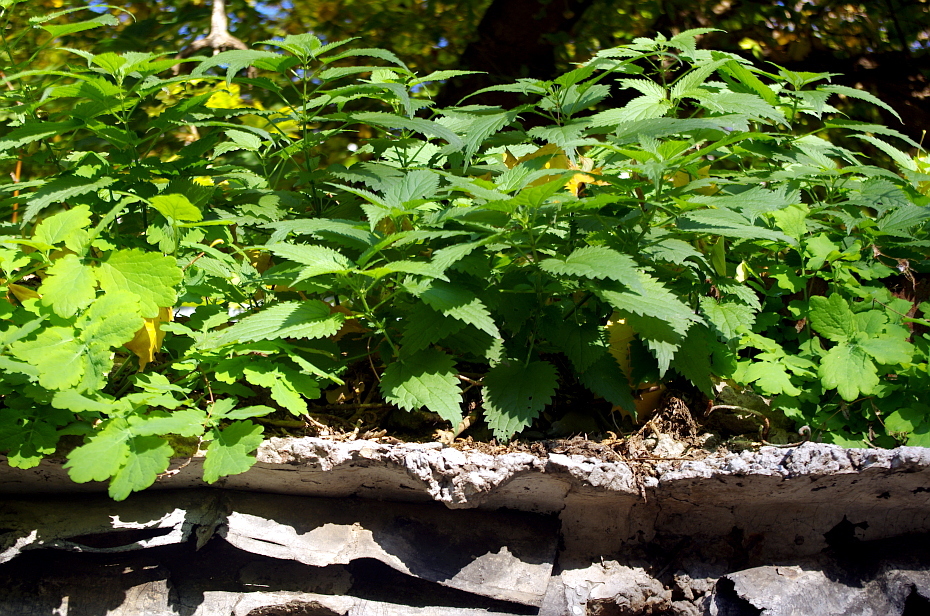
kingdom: Plantae
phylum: Tracheophyta
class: Magnoliopsida
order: Rosales
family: Urticaceae
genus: Urtica
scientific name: Urtica dioica
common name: Common nettle
